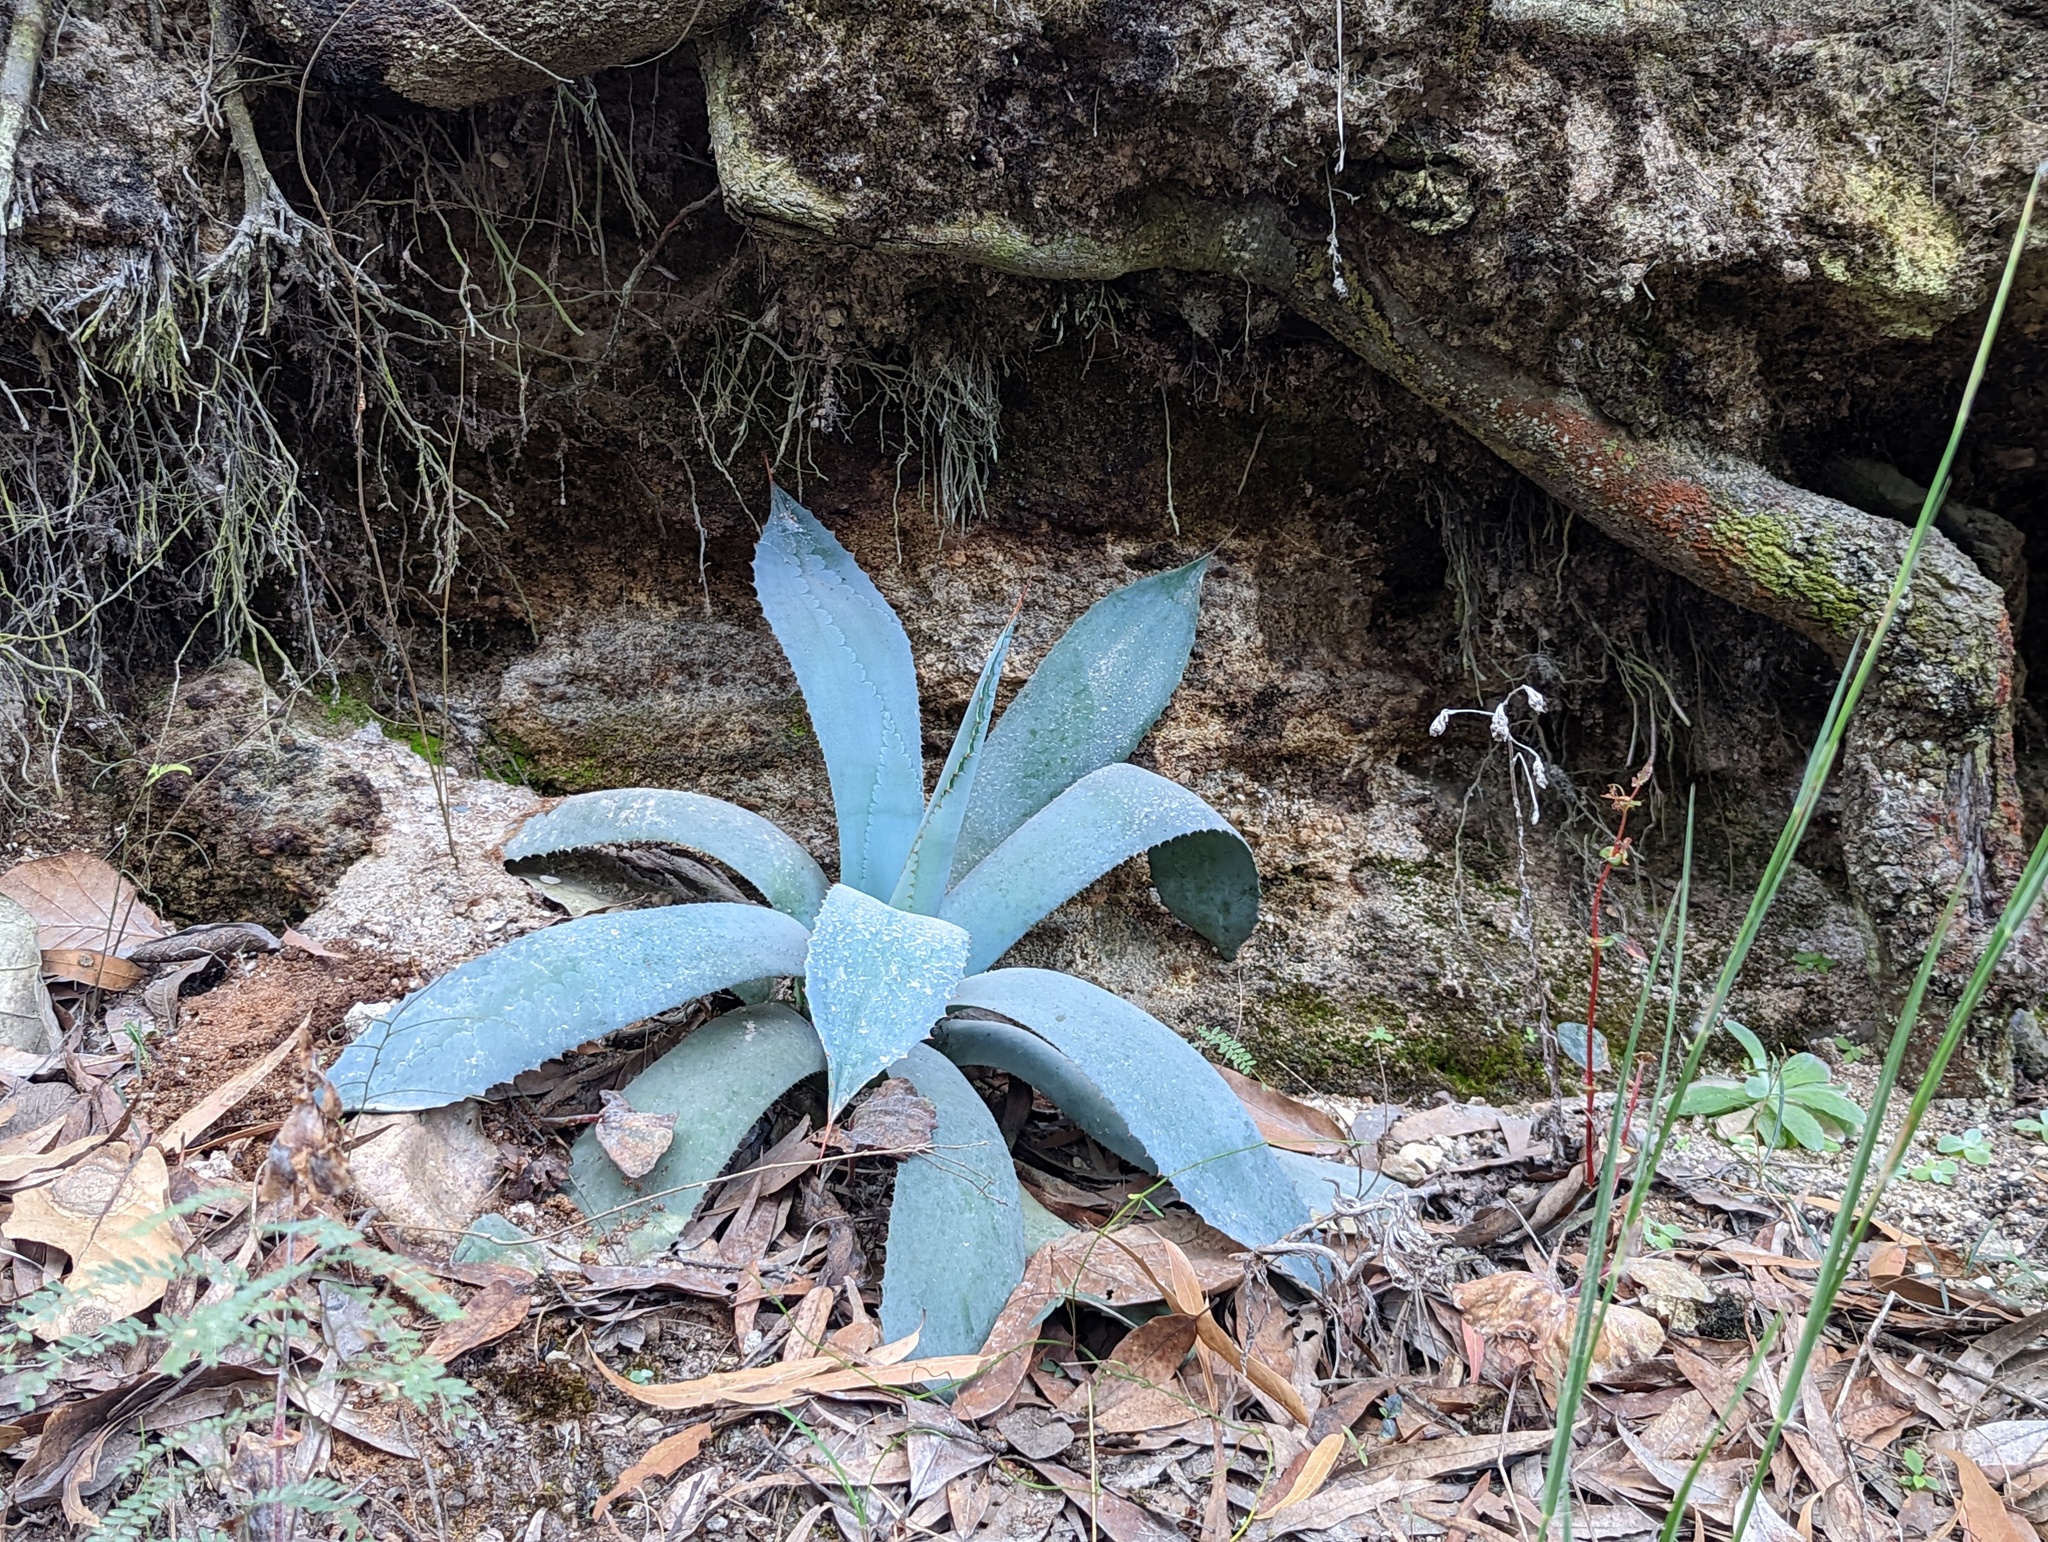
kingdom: Plantae
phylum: Tracheophyta
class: Liliopsida
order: Asparagales
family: Asparagaceae
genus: Agave
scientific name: Agave guadalajarana
